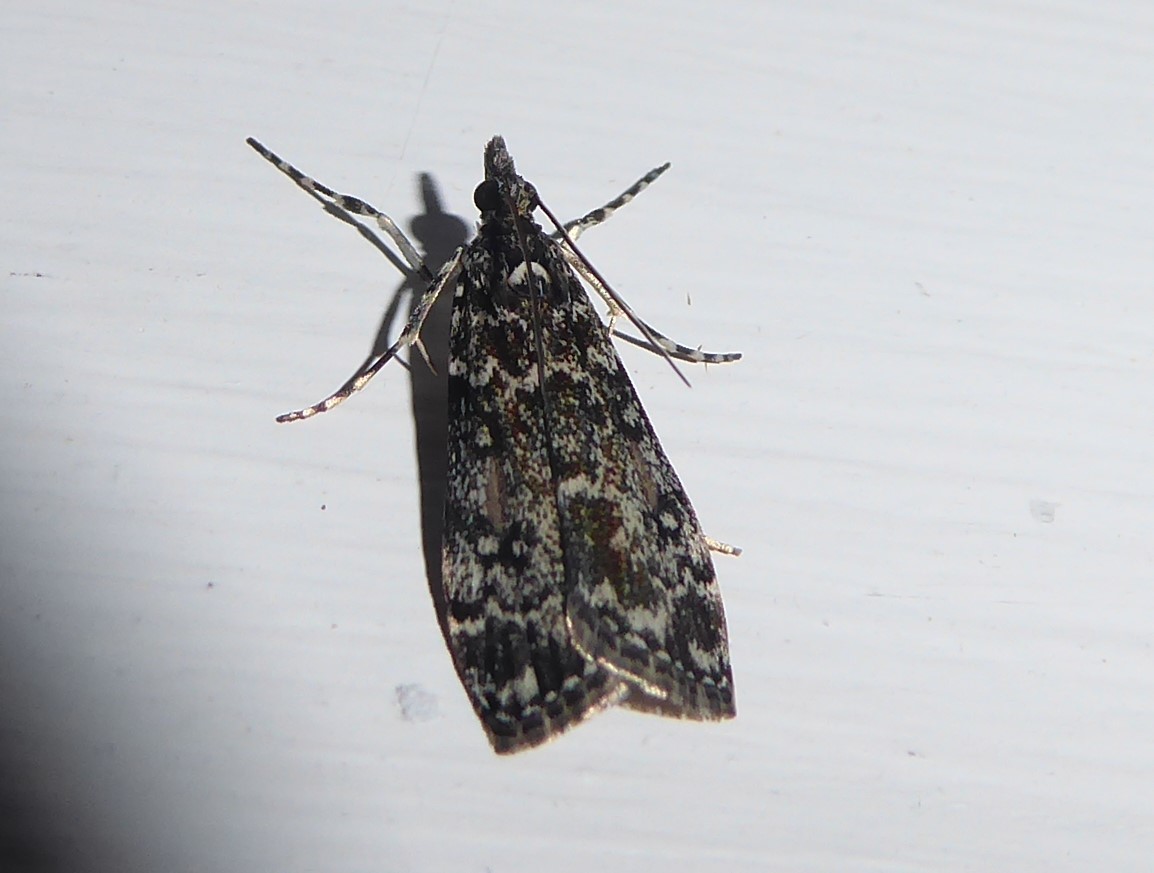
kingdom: Animalia
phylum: Arthropoda
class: Insecta
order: Lepidoptera
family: Crambidae
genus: Eudonia
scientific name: Eudonia philerga
